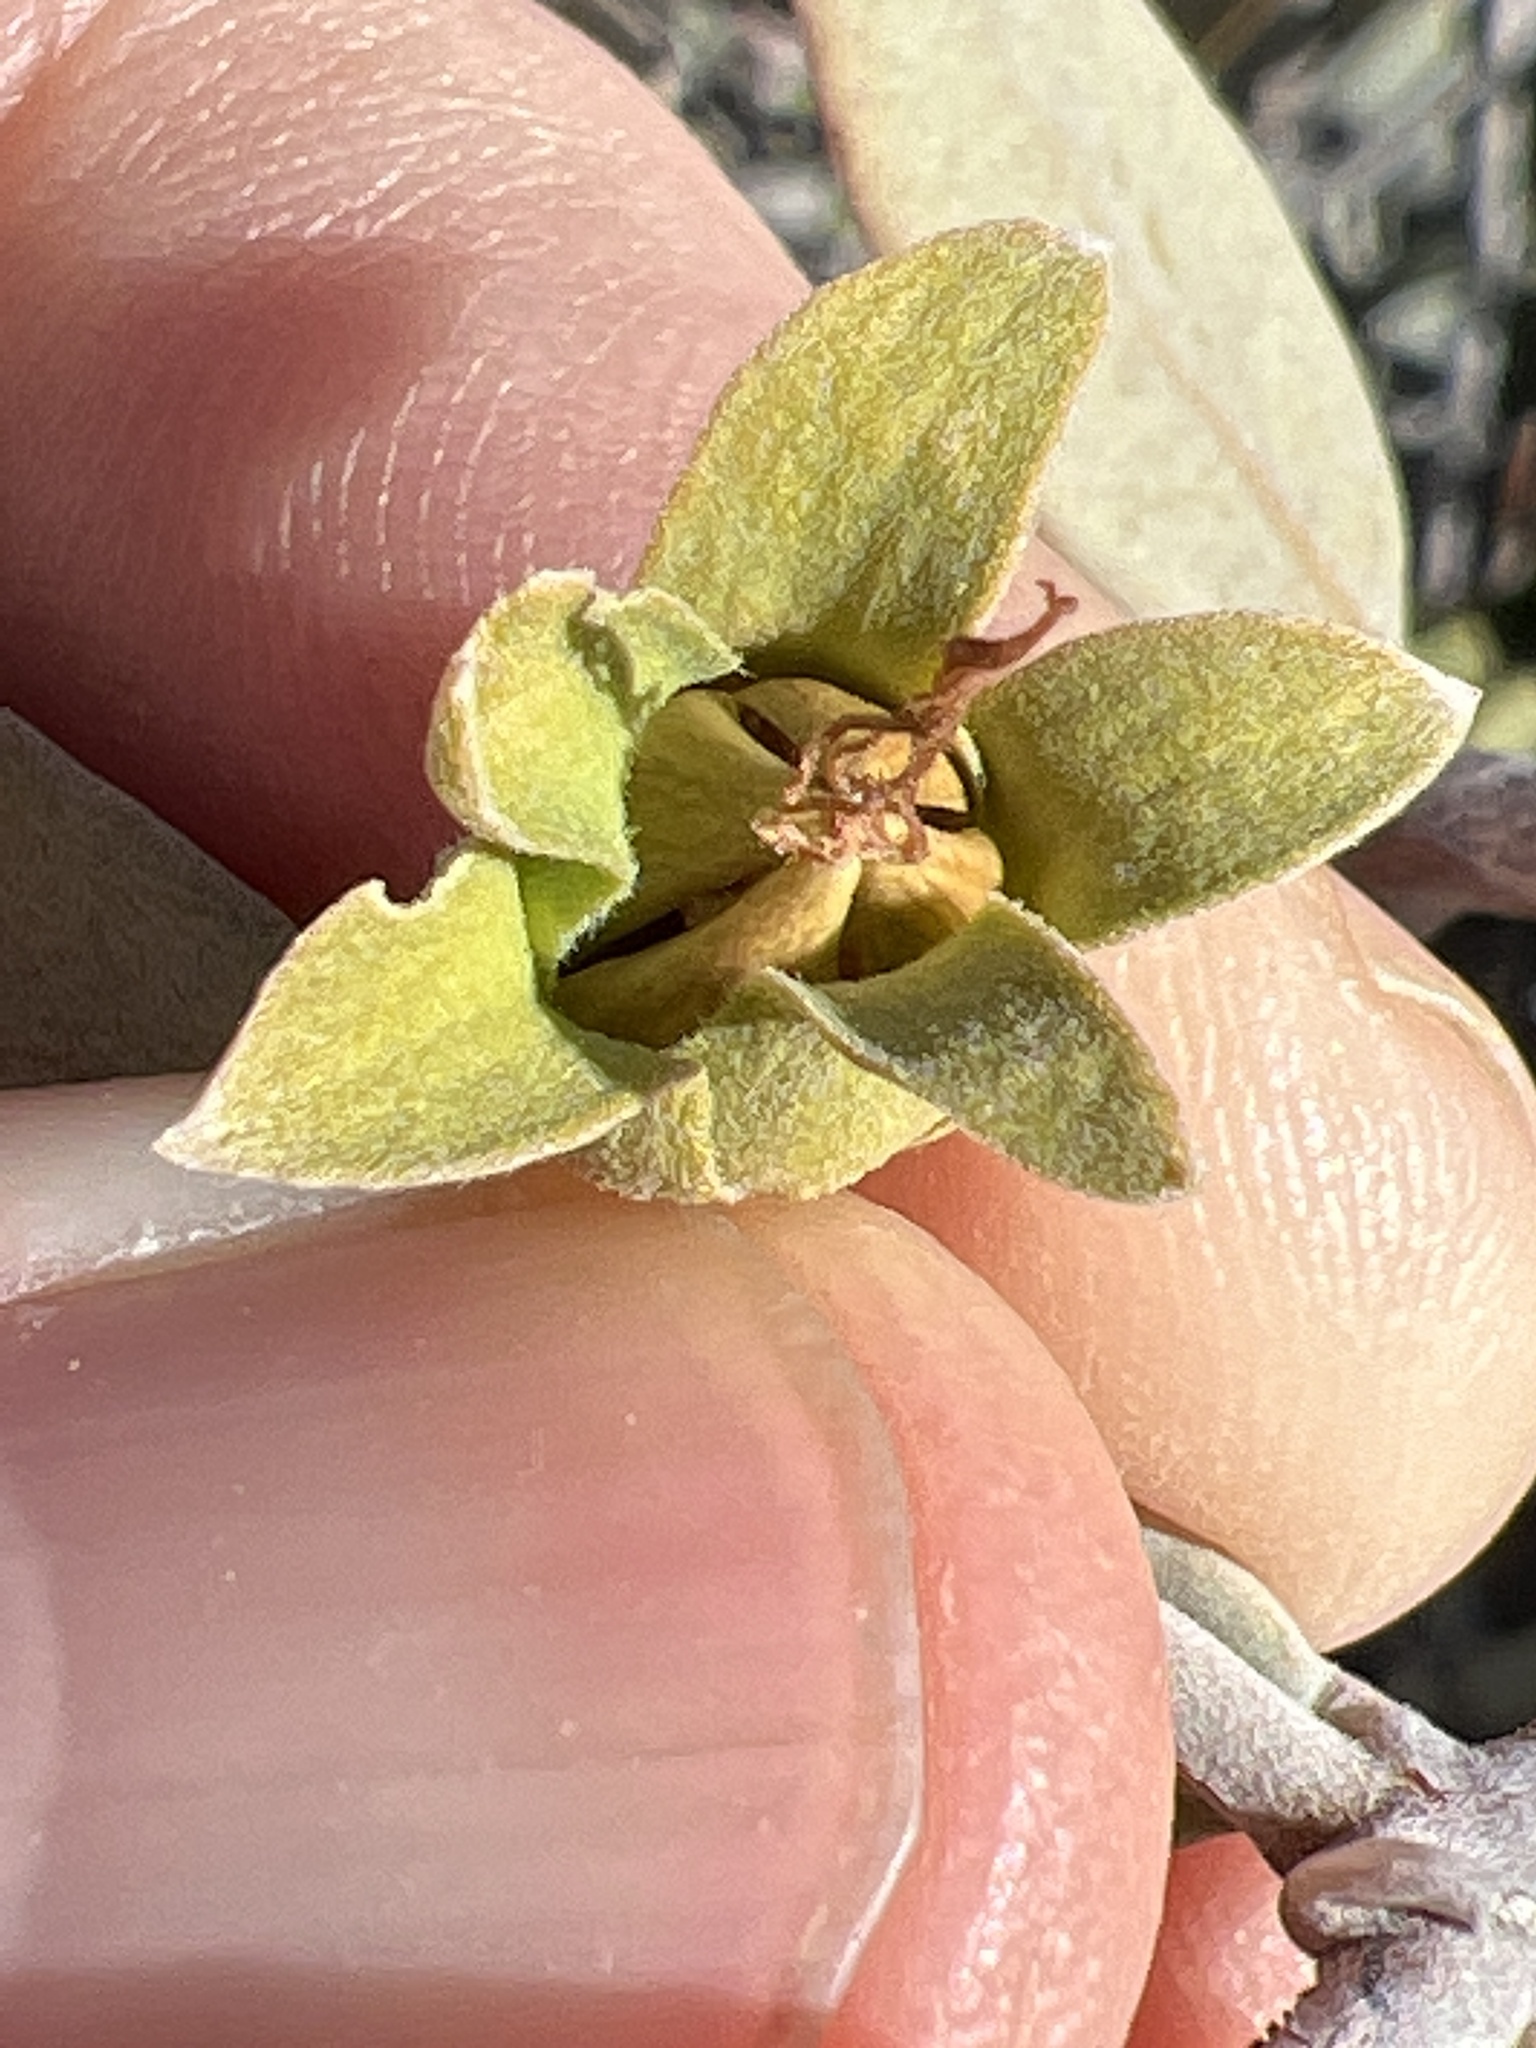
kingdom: Plantae
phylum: Tracheophyta
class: Magnoliopsida
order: Caryophyllales
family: Simmondsiaceae
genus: Simmondsia
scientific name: Simmondsia chinensis
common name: Jojoba
